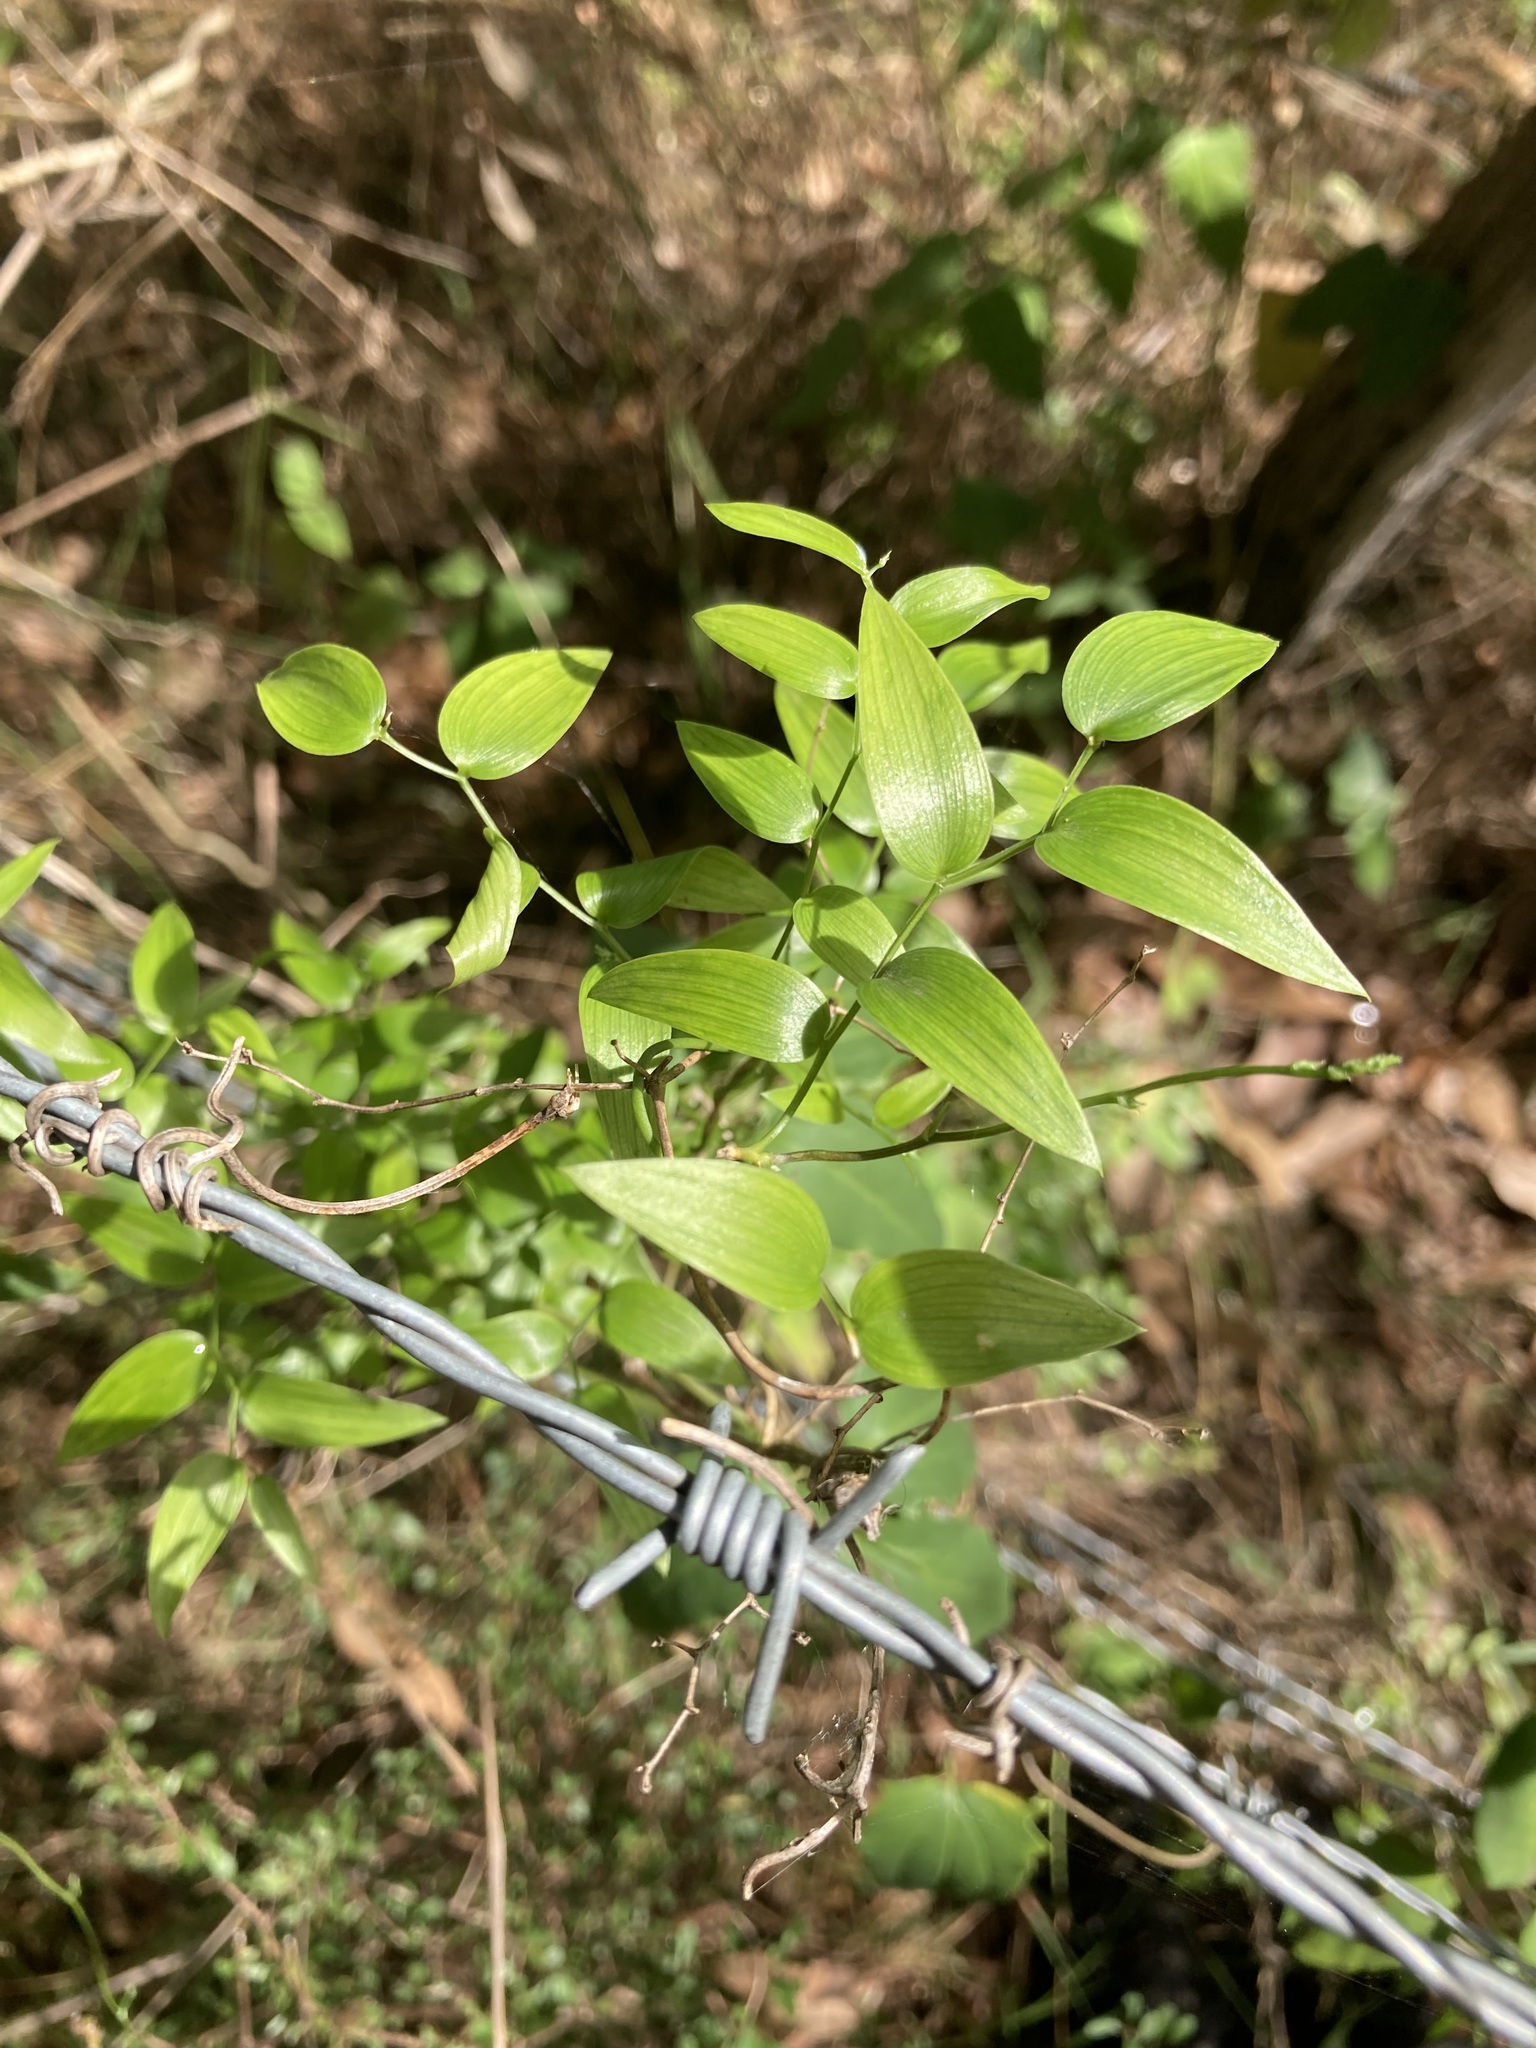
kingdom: Plantae
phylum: Tracheophyta
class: Liliopsida
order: Asparagales
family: Asparagaceae
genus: Asparagus
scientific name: Asparagus asparagoides
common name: African asparagus fern
